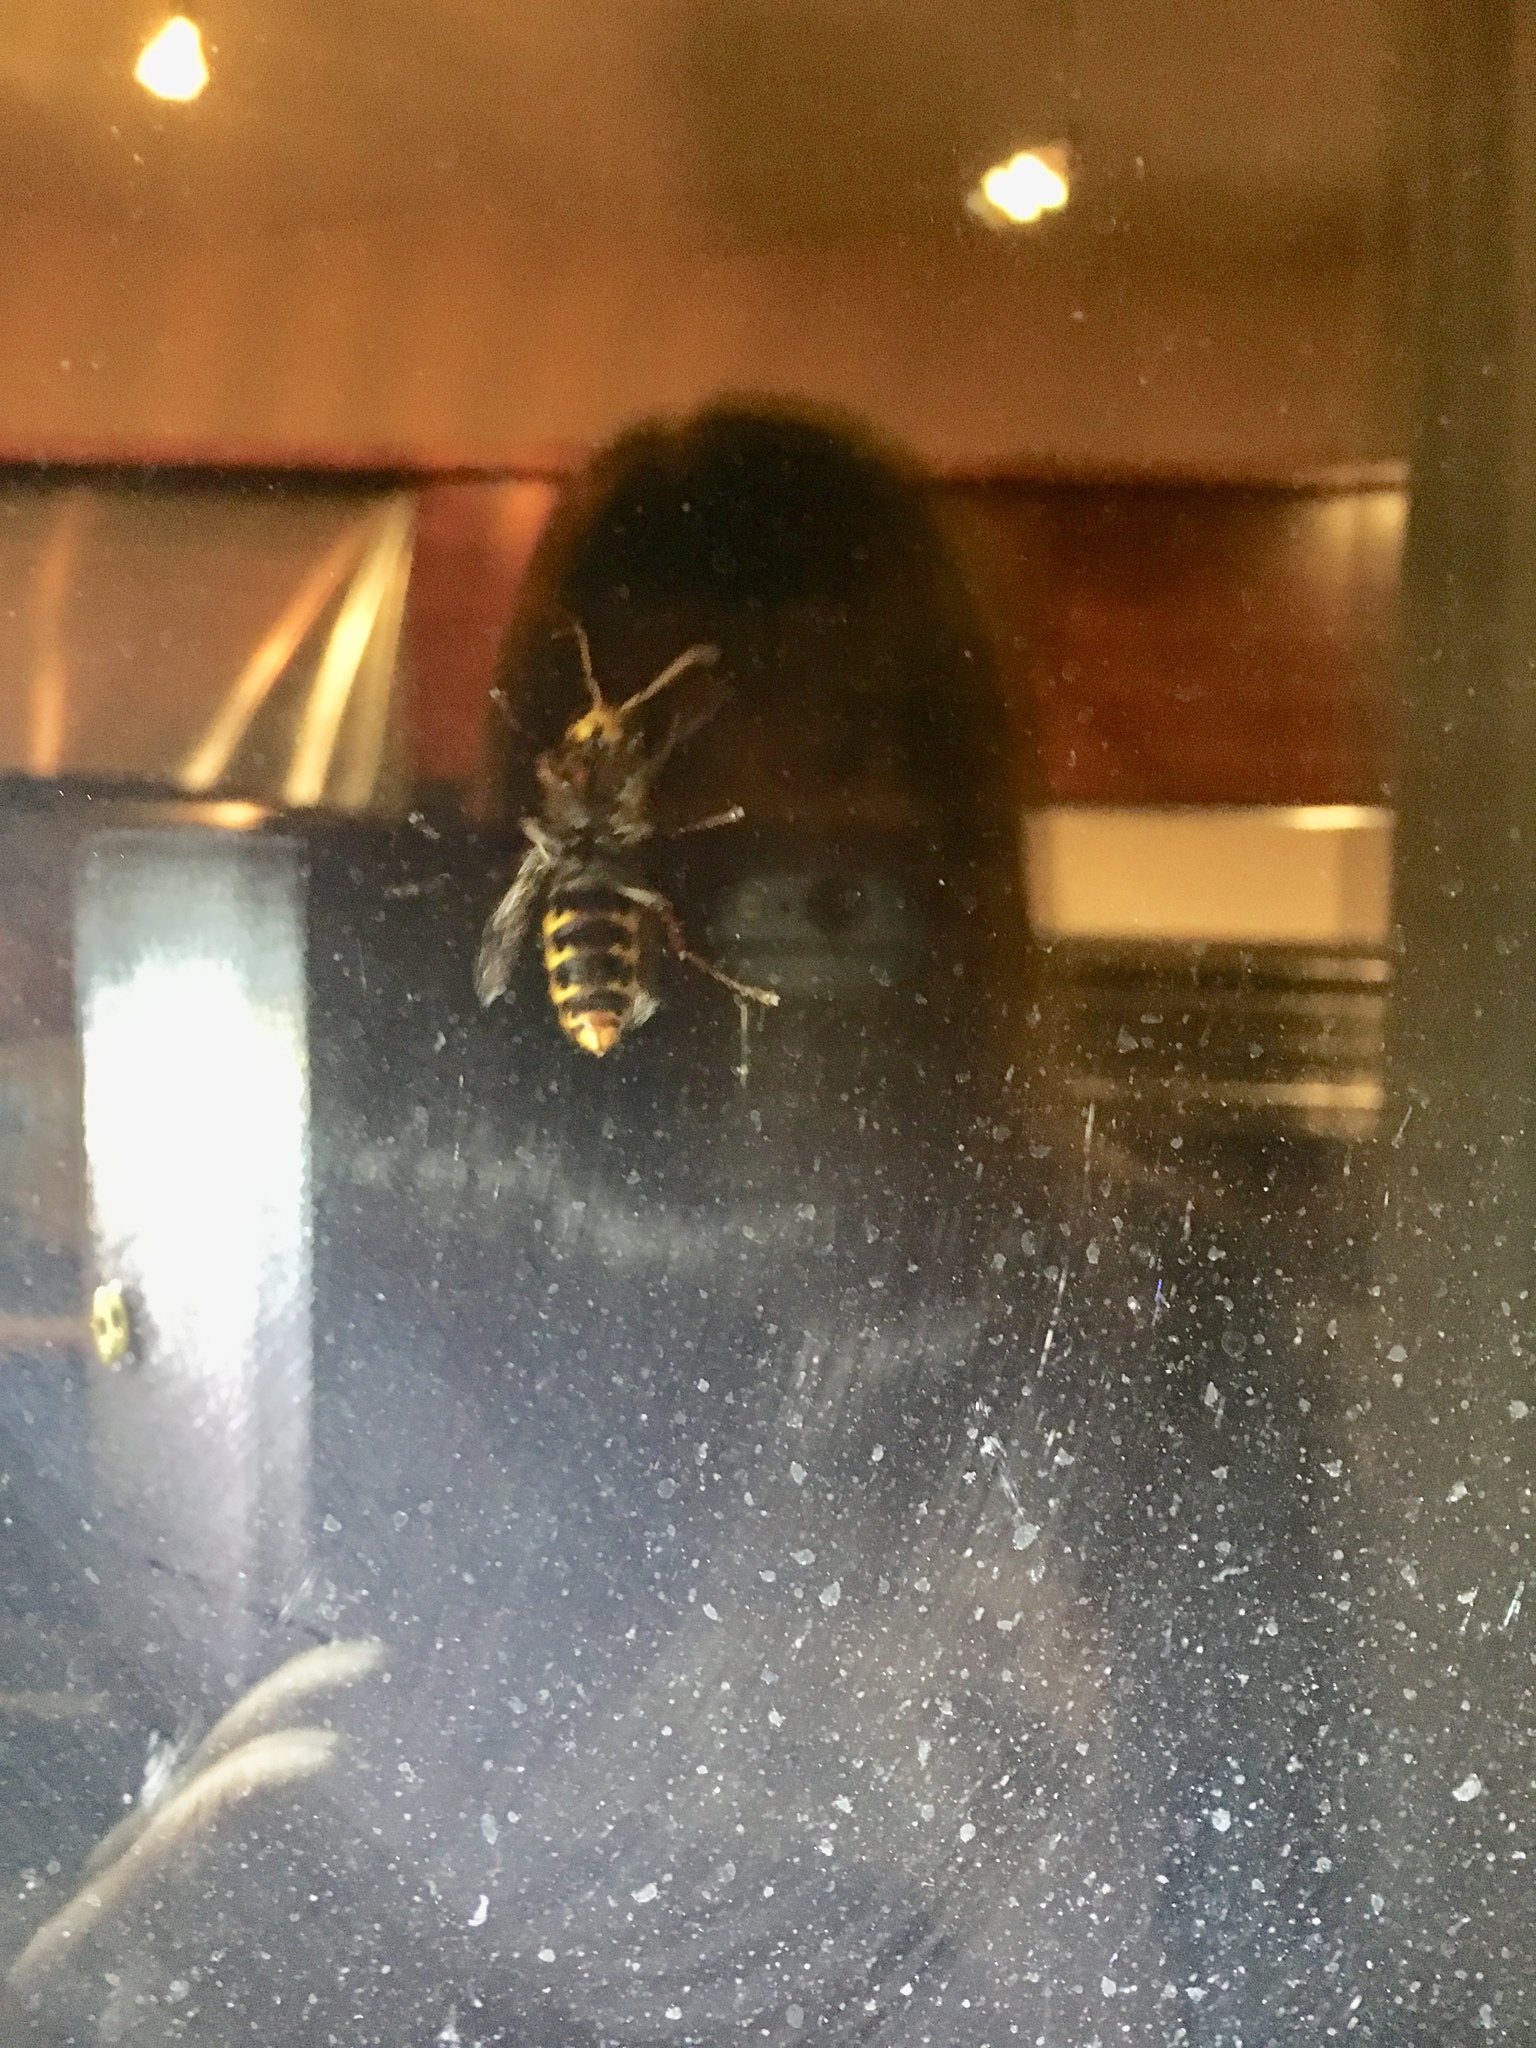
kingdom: Animalia
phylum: Arthropoda
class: Insecta
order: Hymenoptera
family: Vespidae
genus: Vespa
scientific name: Vespa crabro
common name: Hornet
